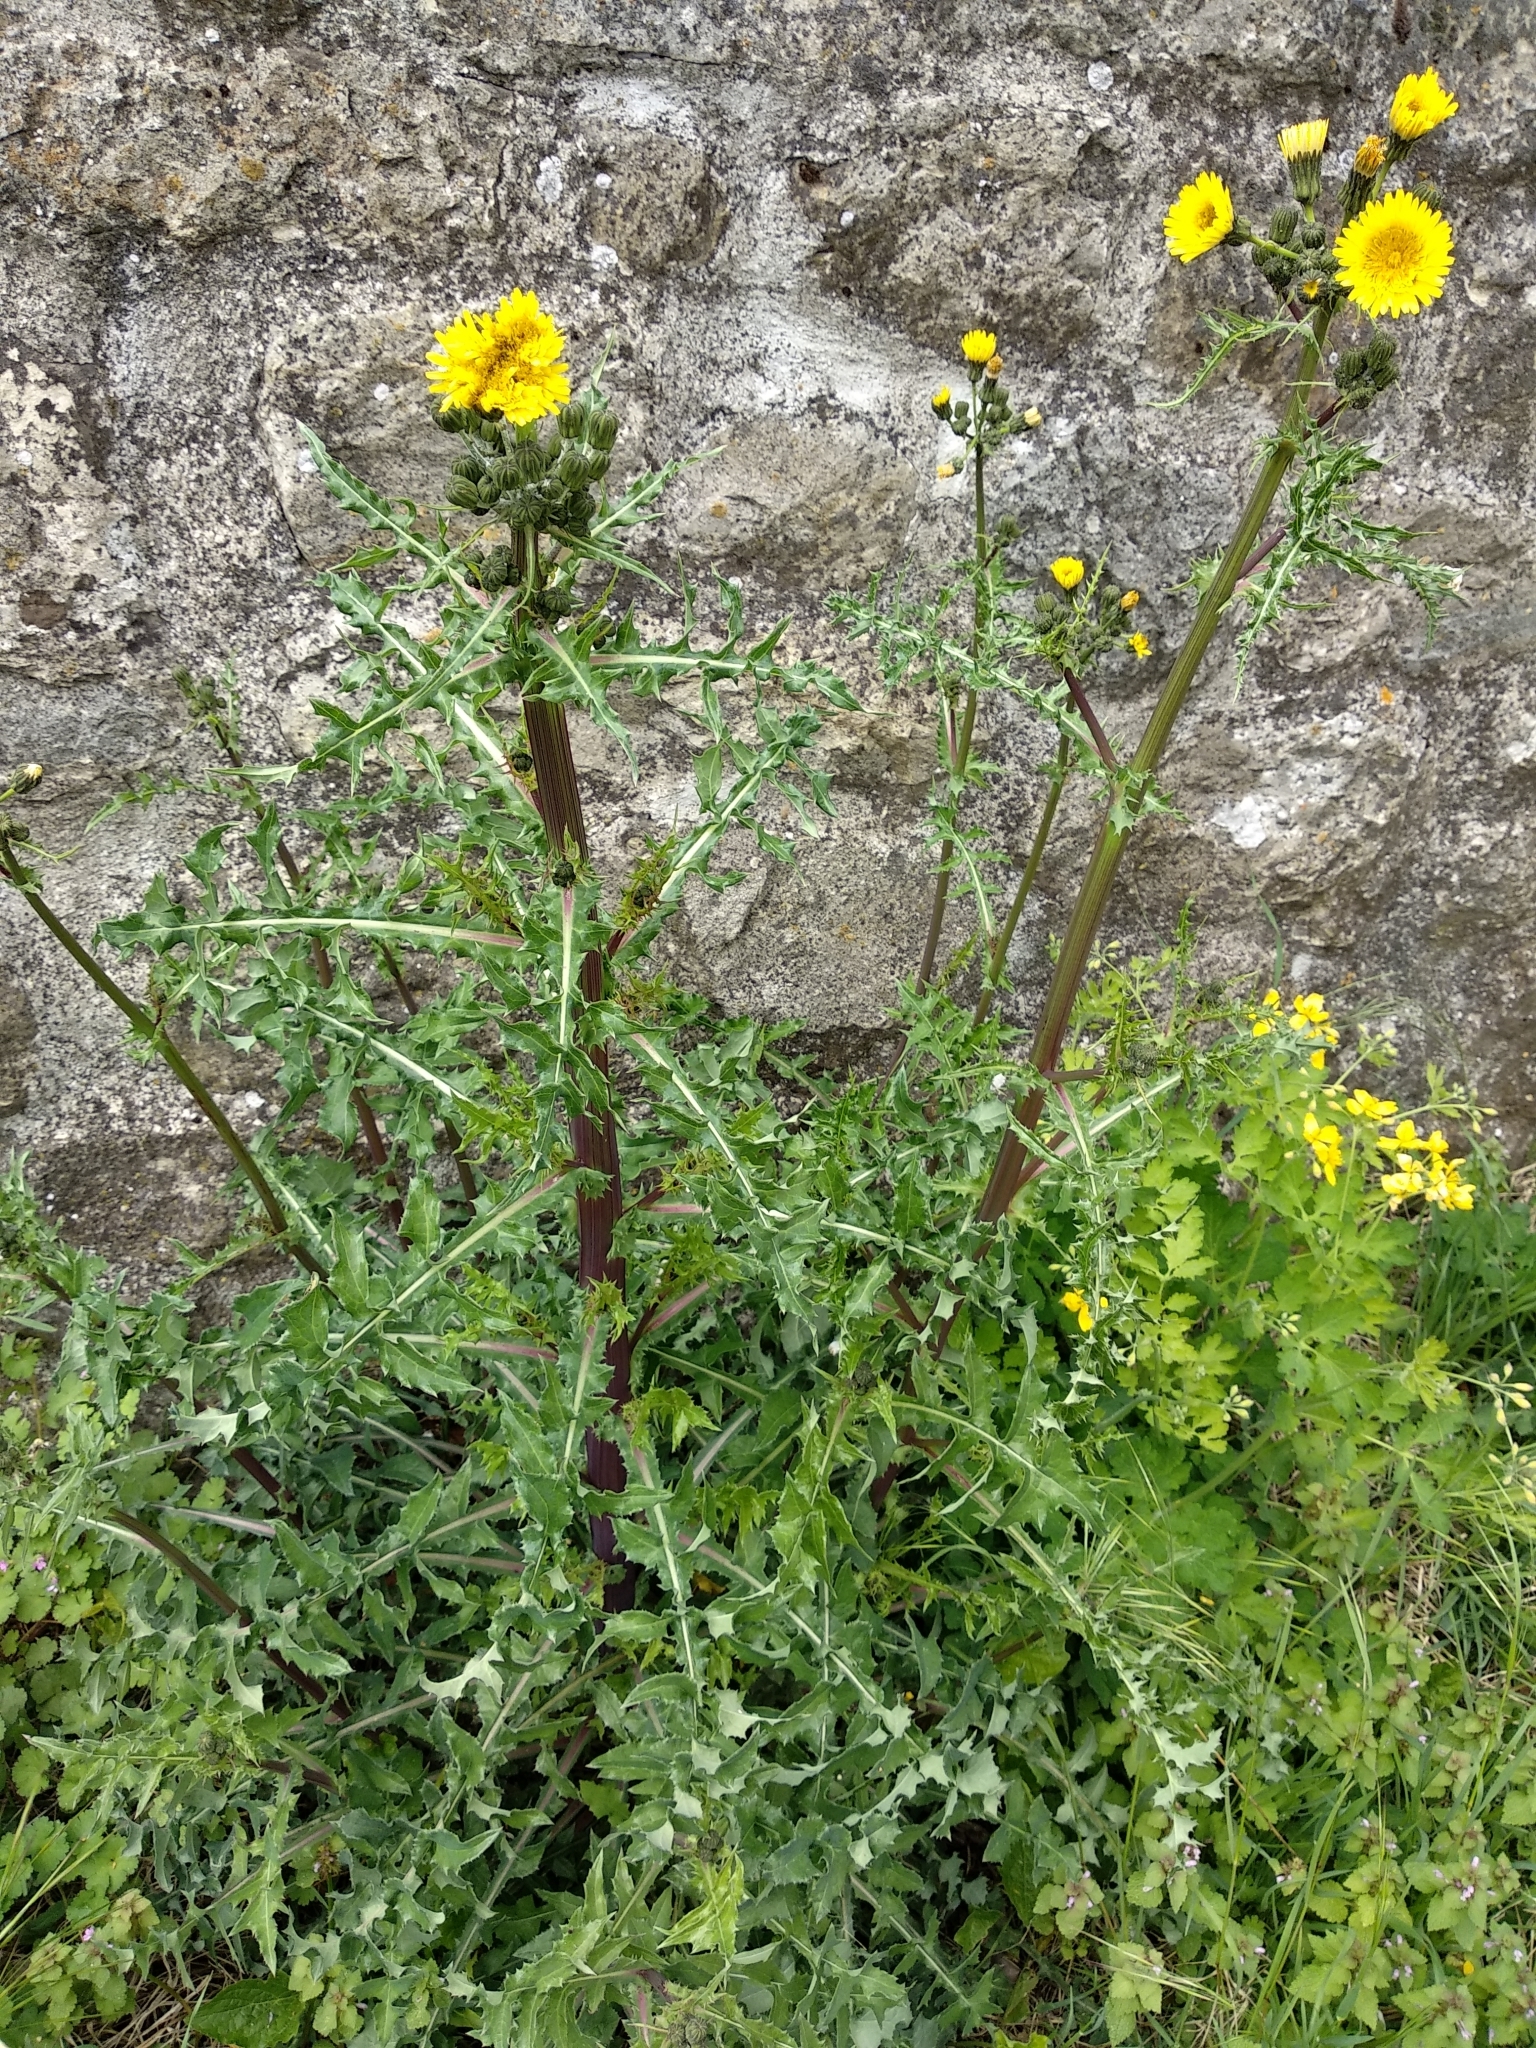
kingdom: Plantae
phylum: Tracheophyta
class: Magnoliopsida
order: Asterales
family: Asteraceae
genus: Sonchus
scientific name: Sonchus asper
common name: Prickly sow-thistle
